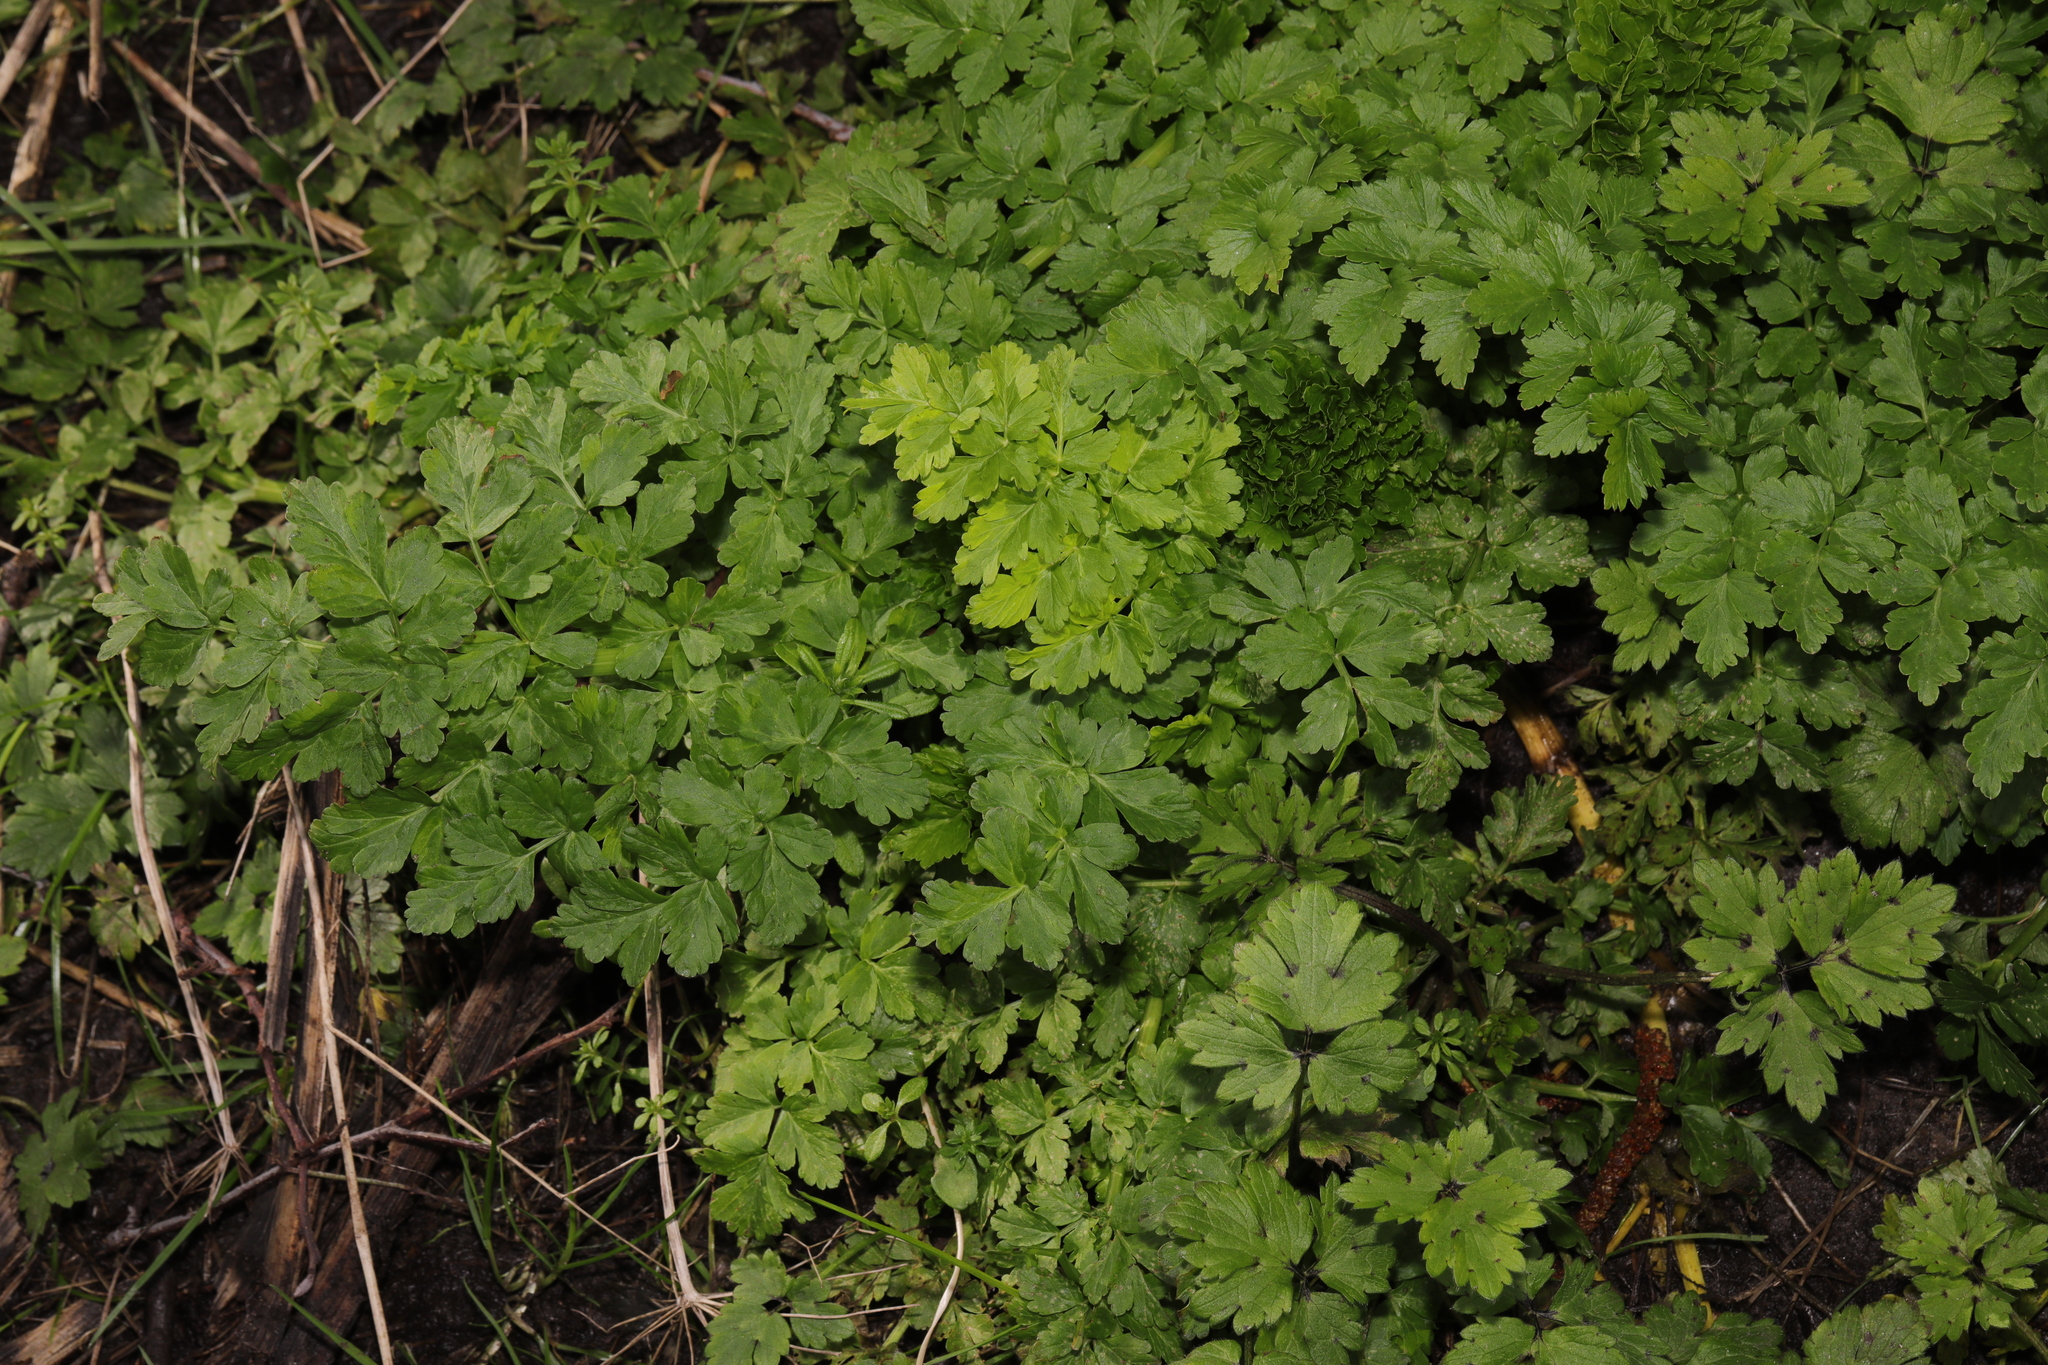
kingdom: Plantae
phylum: Tracheophyta
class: Magnoliopsida
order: Apiales
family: Apiaceae
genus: Oenanthe
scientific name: Oenanthe crocata
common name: Hemlock water-dropwort
